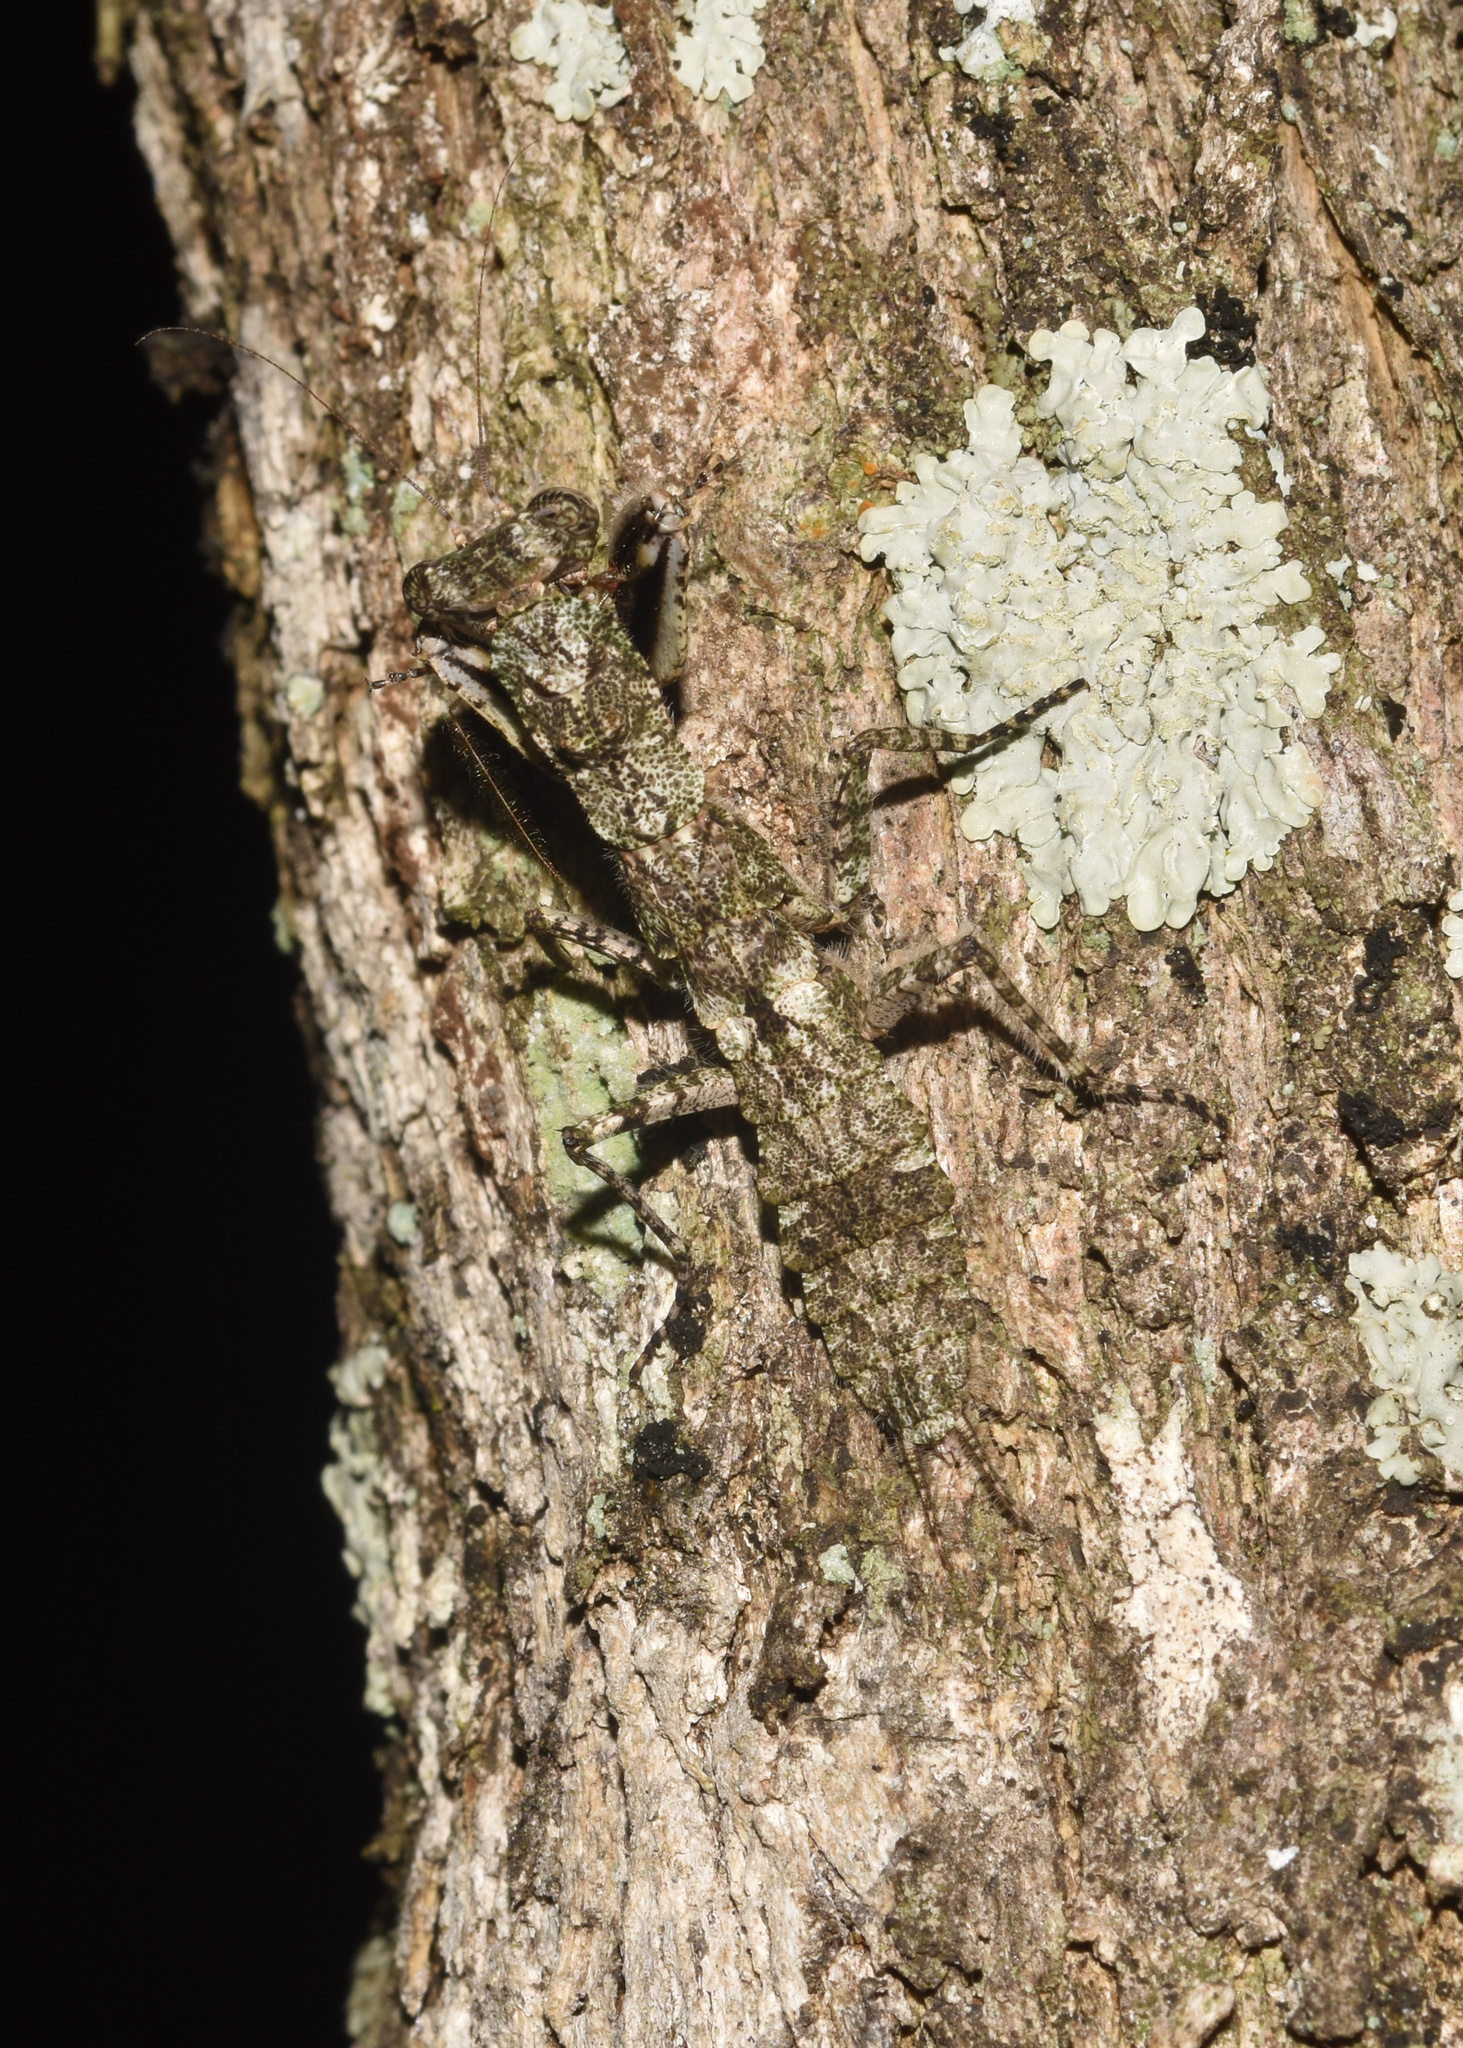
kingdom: Animalia
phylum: Arthropoda
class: Insecta
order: Mantodea
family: Eremiaphilidae
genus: Tarachodes
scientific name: Tarachodes sanctus
